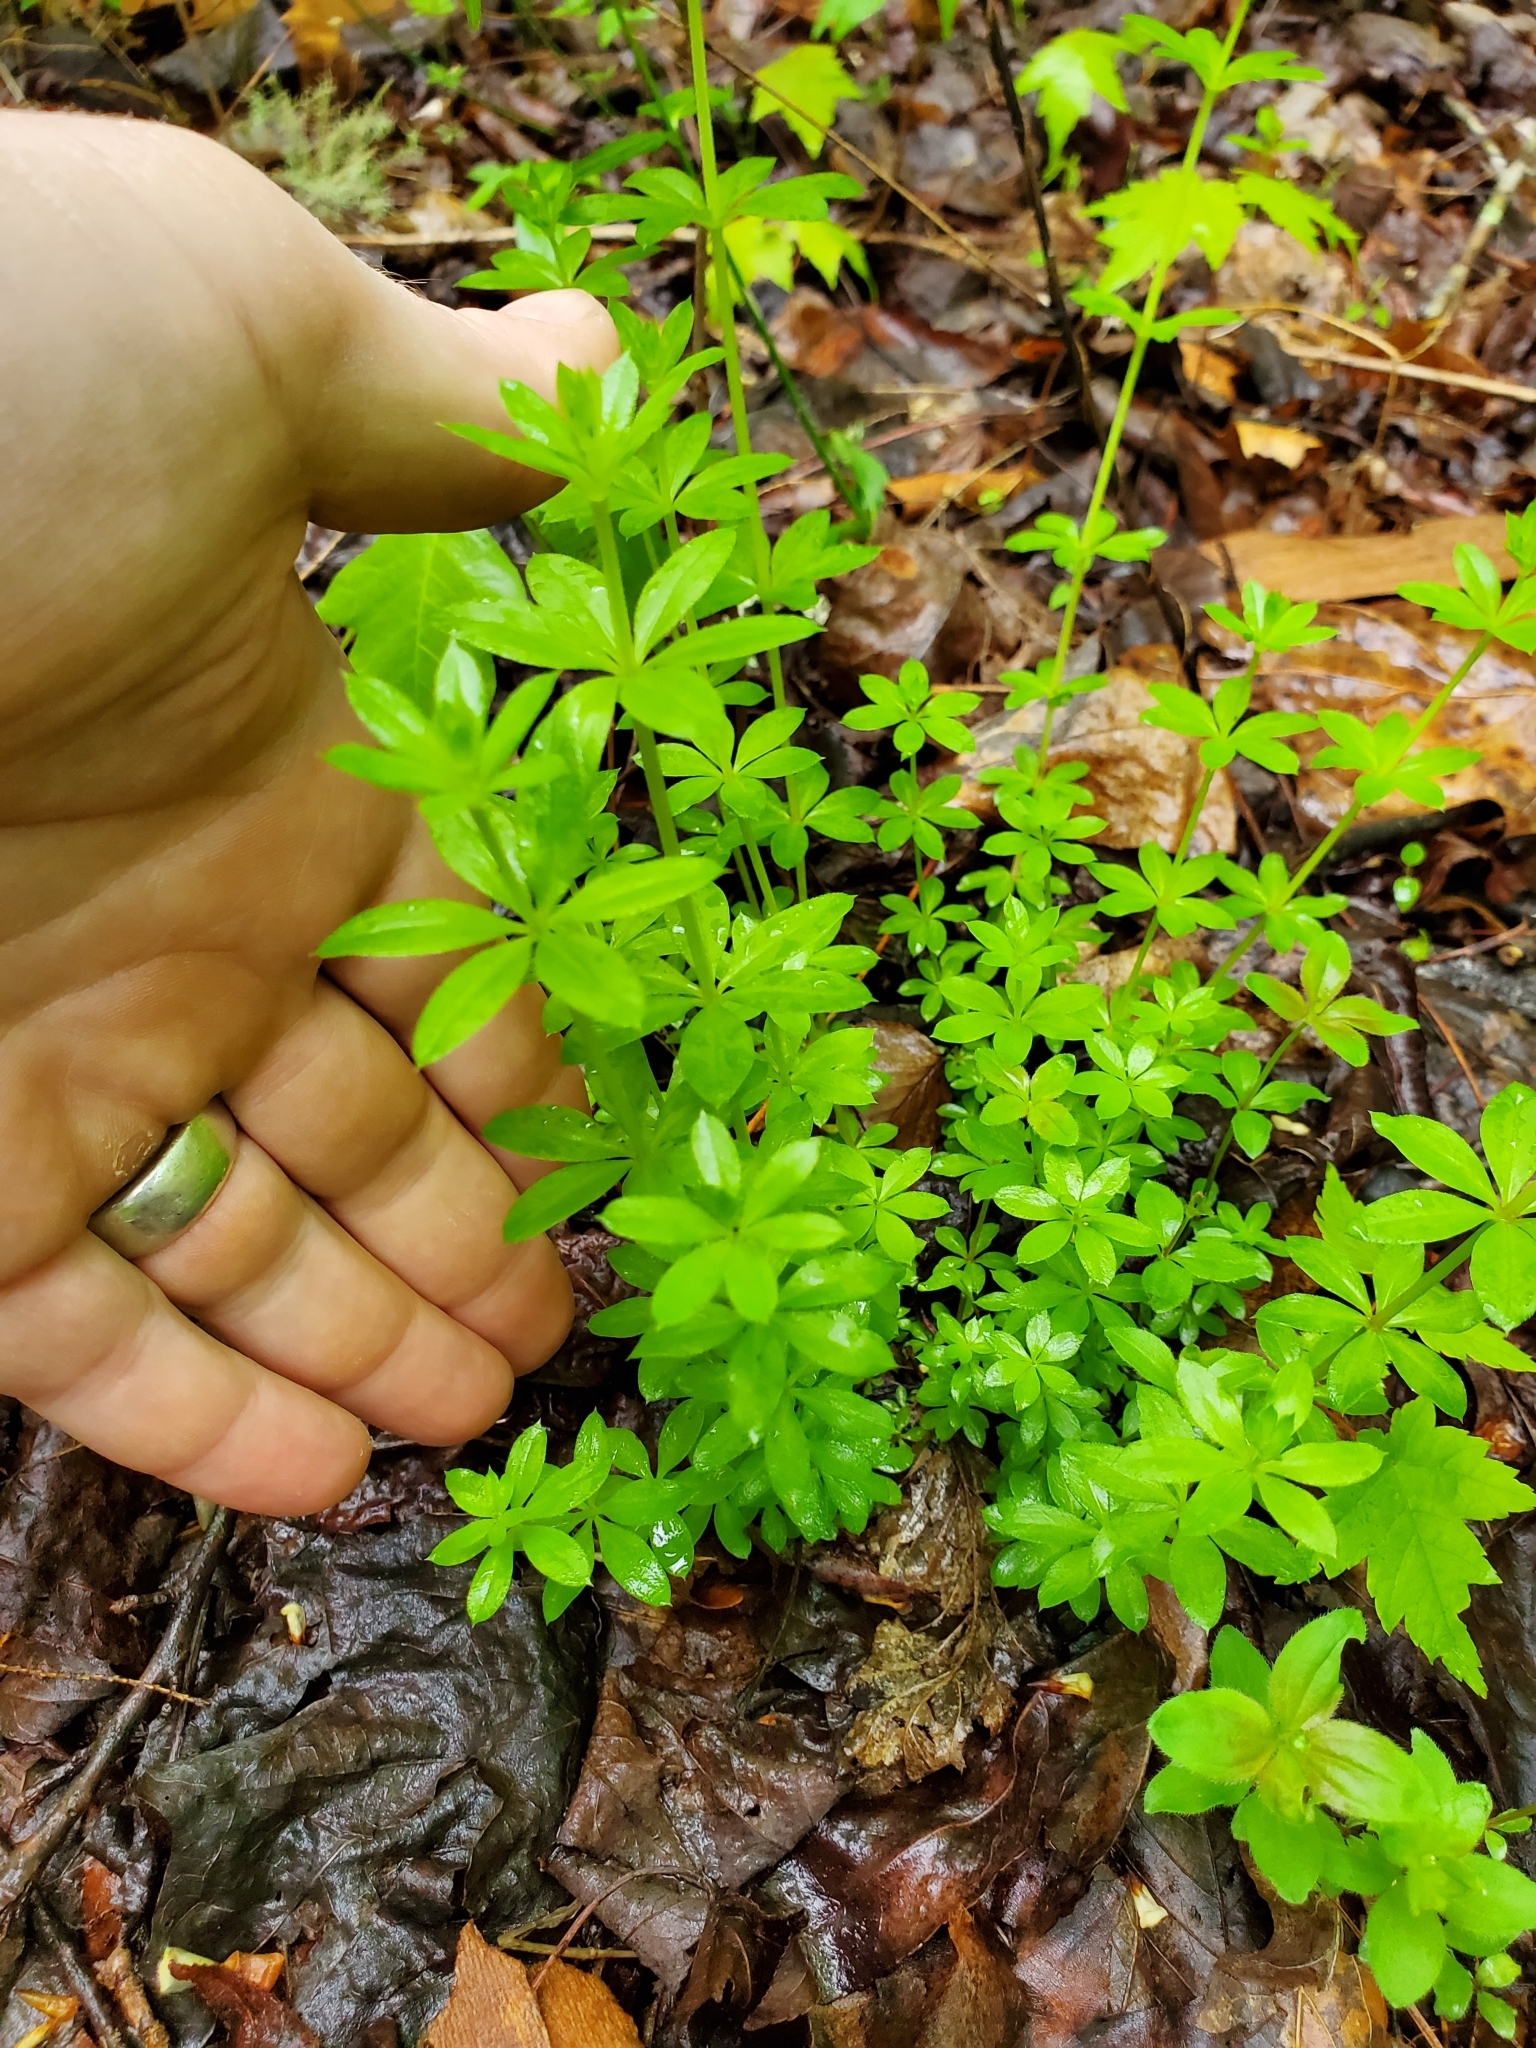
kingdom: Plantae
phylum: Tracheophyta
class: Magnoliopsida
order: Gentianales
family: Rubiaceae
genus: Galium
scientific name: Galium triflorum
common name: Fragrant bedstraw
